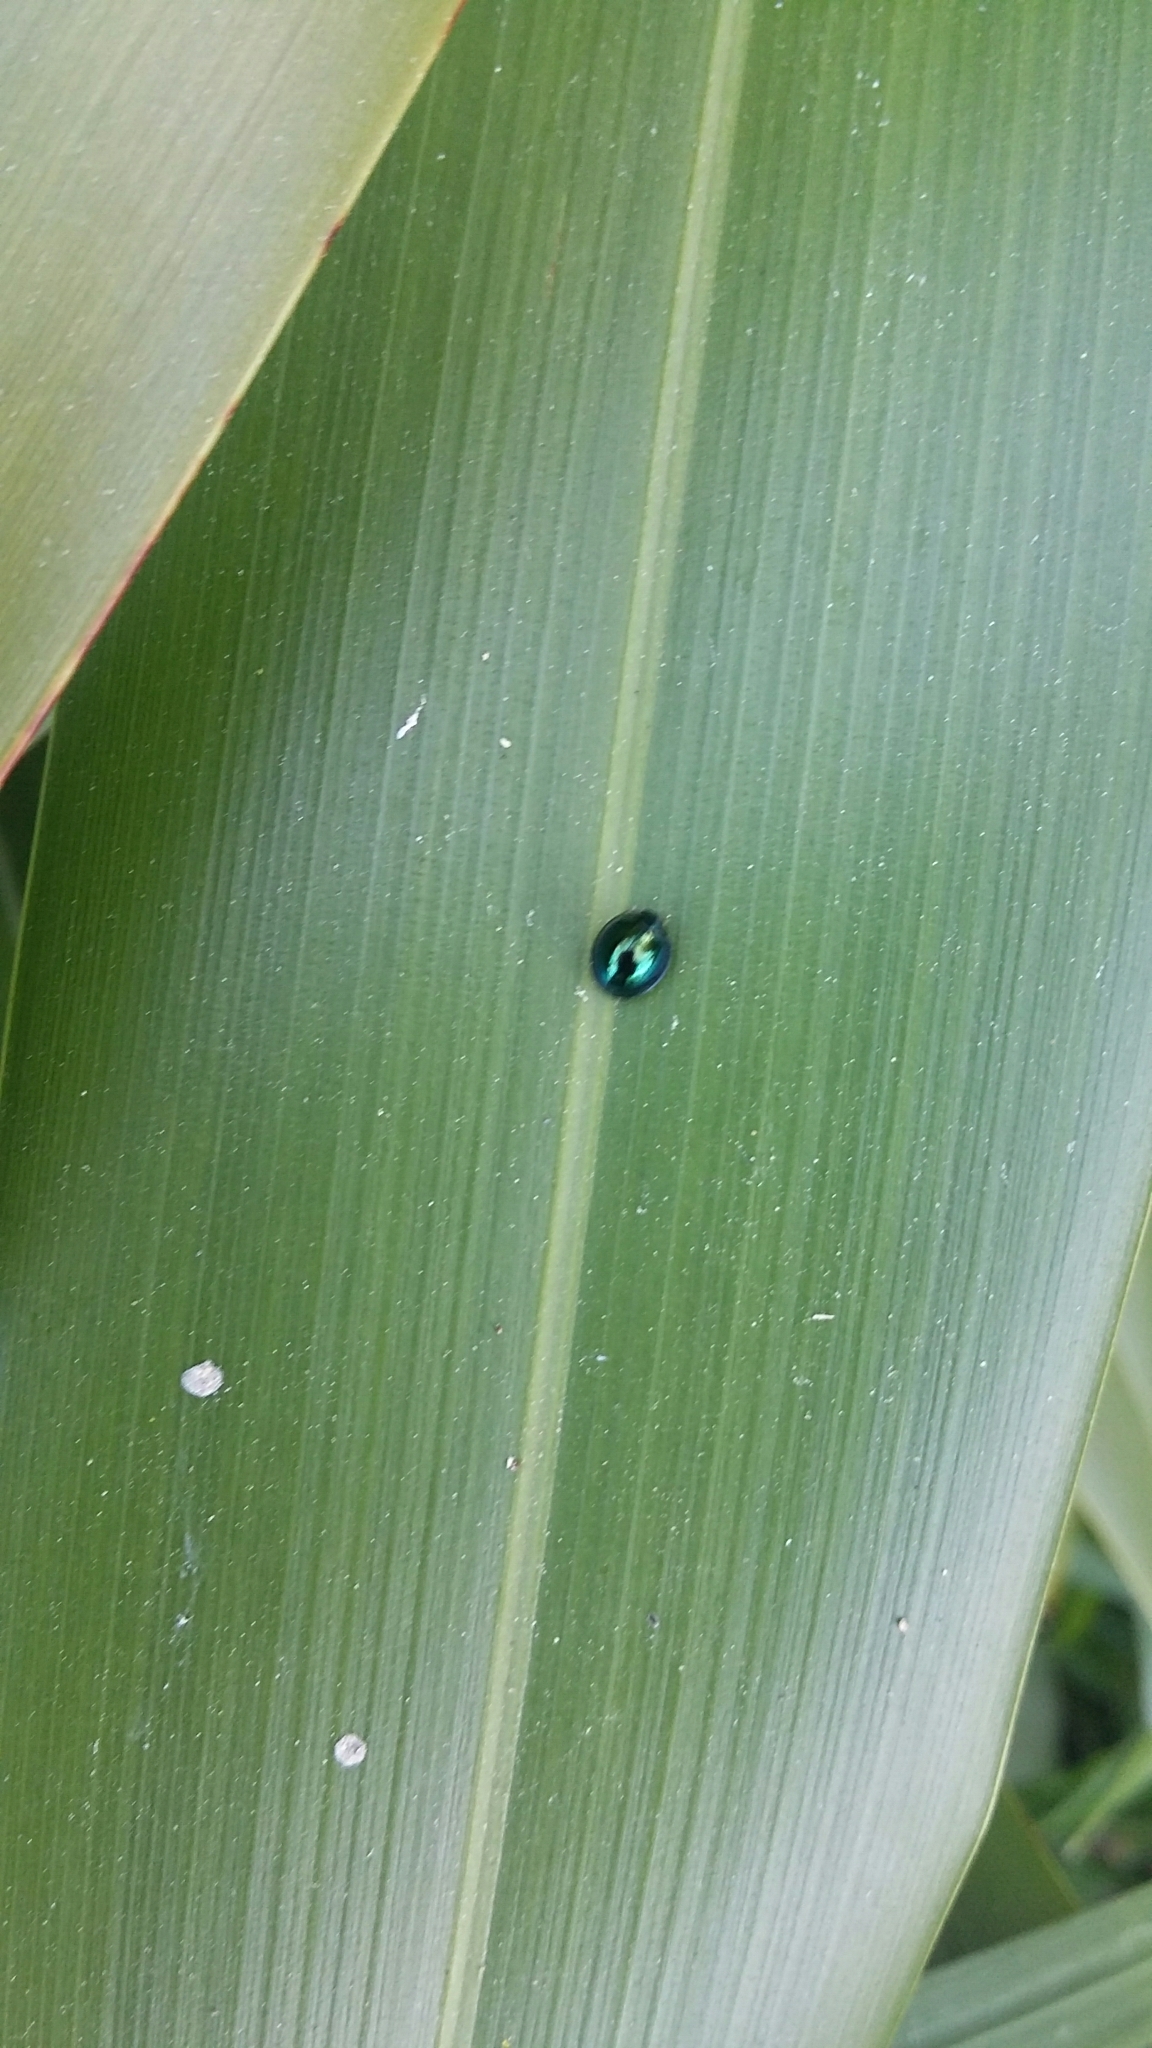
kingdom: Animalia
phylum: Arthropoda
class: Insecta
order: Coleoptera
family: Coccinellidae
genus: Halmus
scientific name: Halmus chalybeus
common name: Steel blue ladybird beetle
